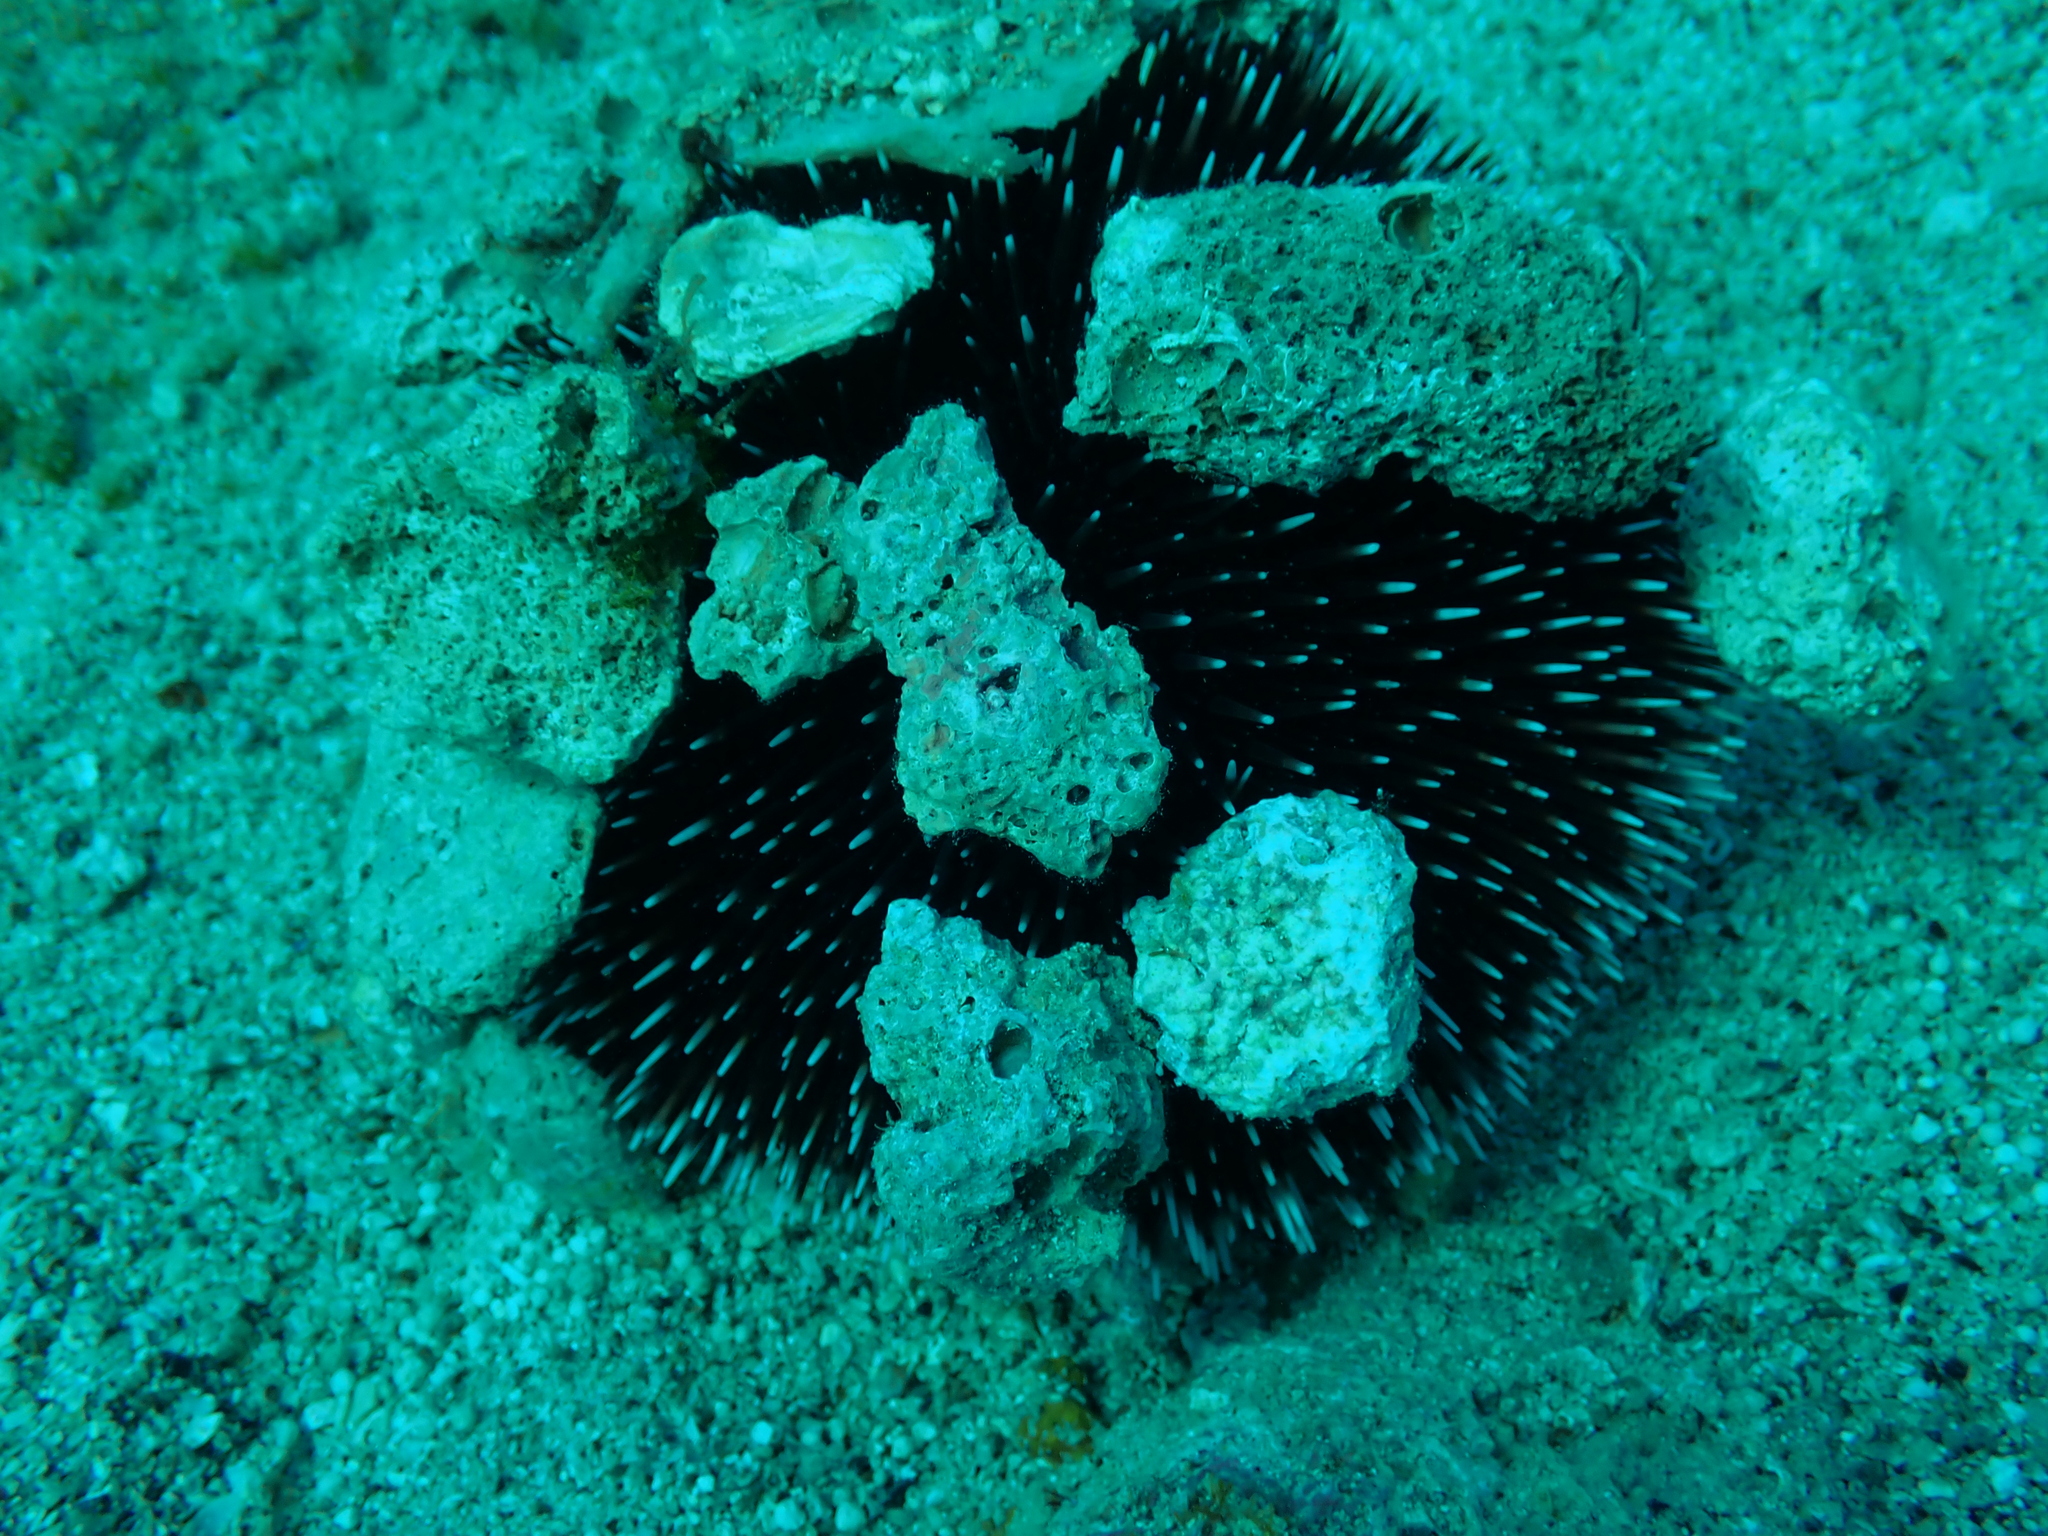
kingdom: Animalia
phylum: Echinodermata
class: Echinoidea
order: Camarodonta
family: Toxopneustidae
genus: Sphaerechinus
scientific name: Sphaerechinus granularis
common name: Violet sea urchin
